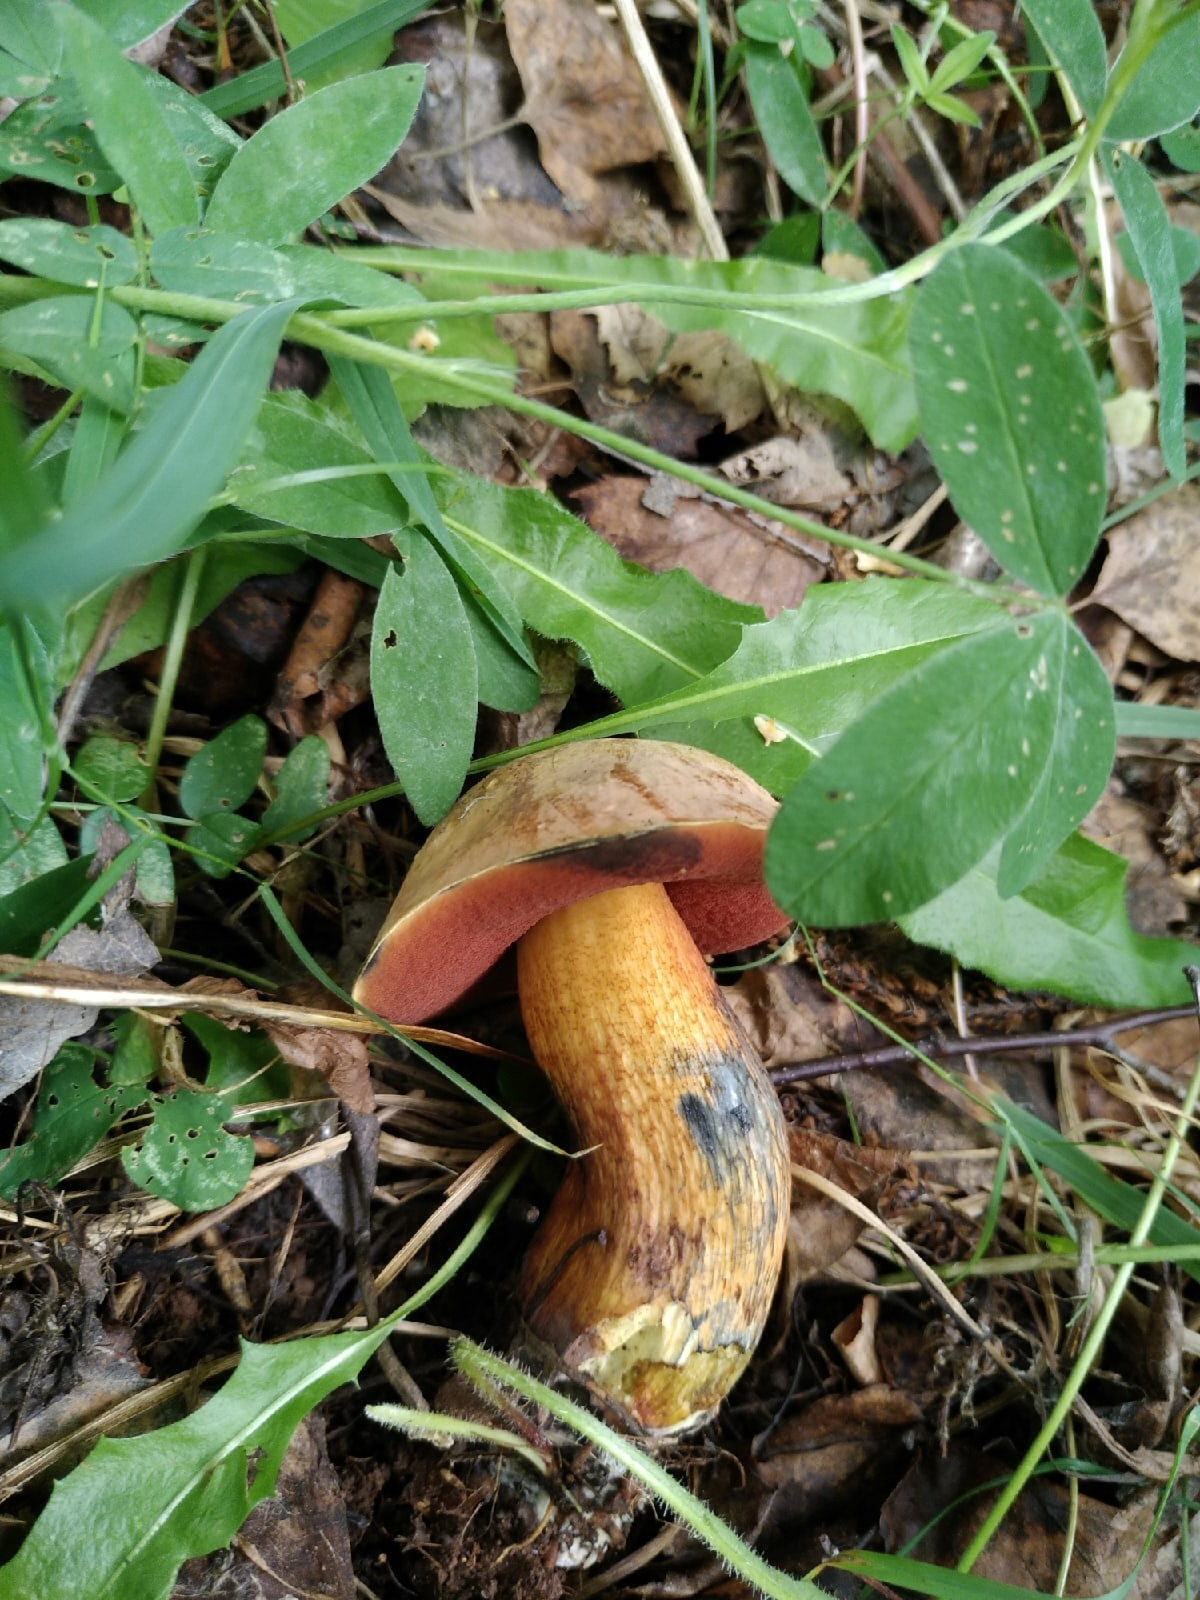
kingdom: Fungi
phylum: Basidiomycota
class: Agaricomycetes
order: Boletales
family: Boletaceae
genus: Suillellus
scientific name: Suillellus luridus
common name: Lurid bolete
